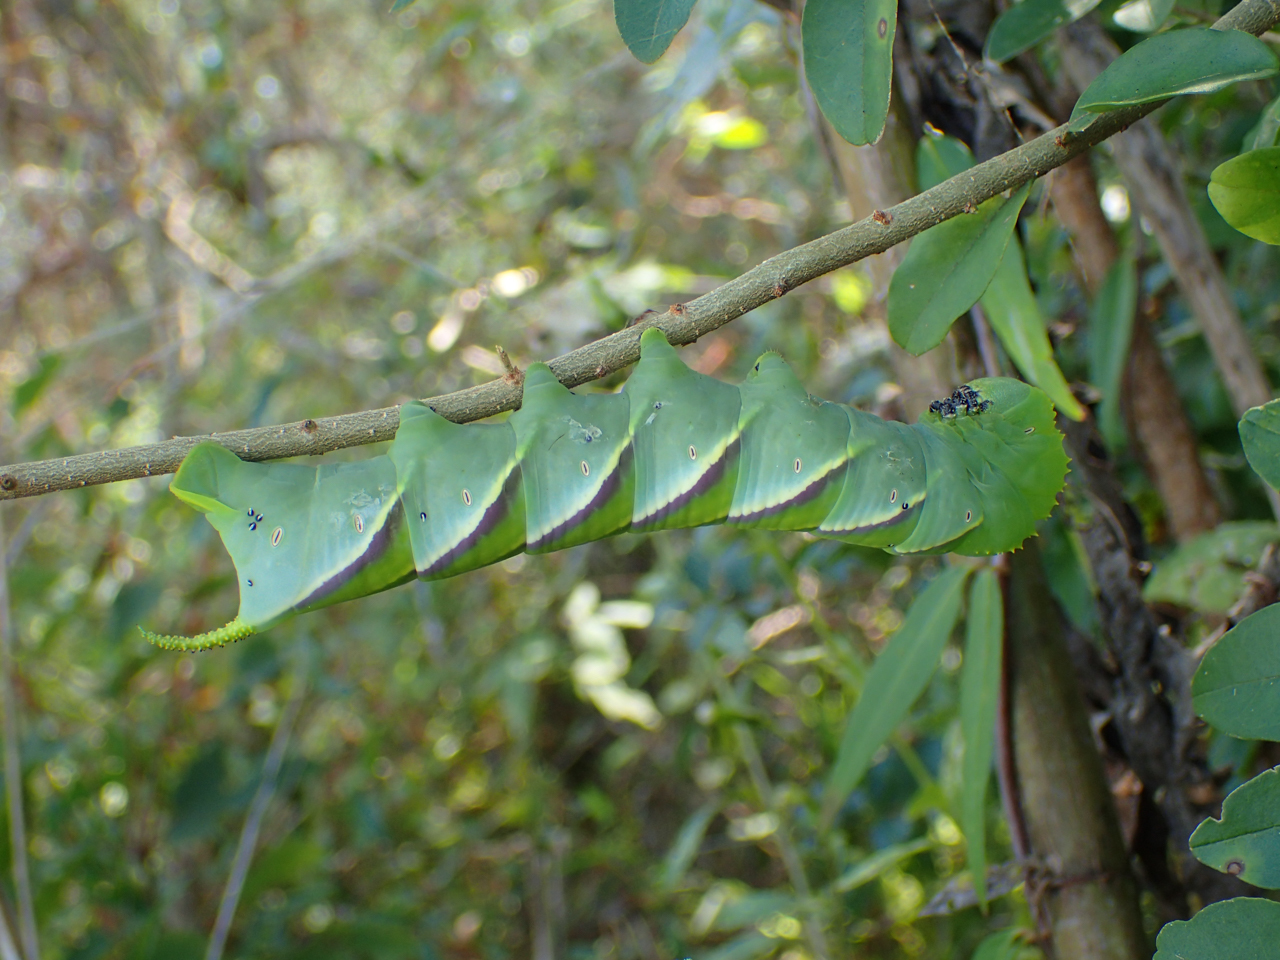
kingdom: Animalia
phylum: Arthropoda
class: Insecta
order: Lepidoptera
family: Sphingidae
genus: Manduca
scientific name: Manduca rustica
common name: Rustic sphinx
